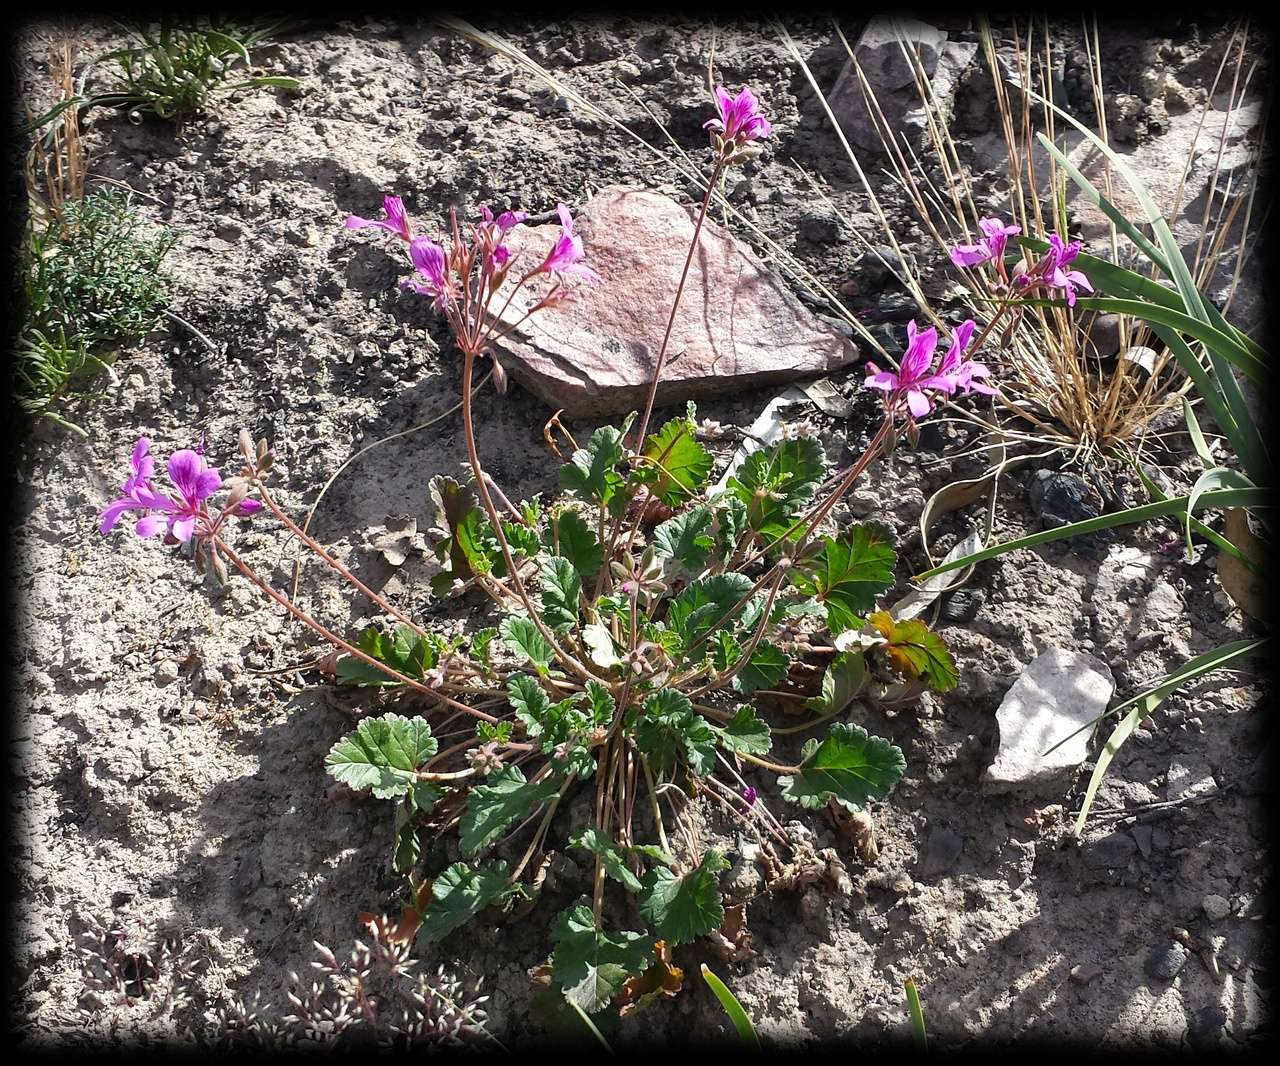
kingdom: Plantae
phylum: Tracheophyta
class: Magnoliopsida
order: Geraniales
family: Geraniaceae
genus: Pelargonium
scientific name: Pelargonium rodneyanum
